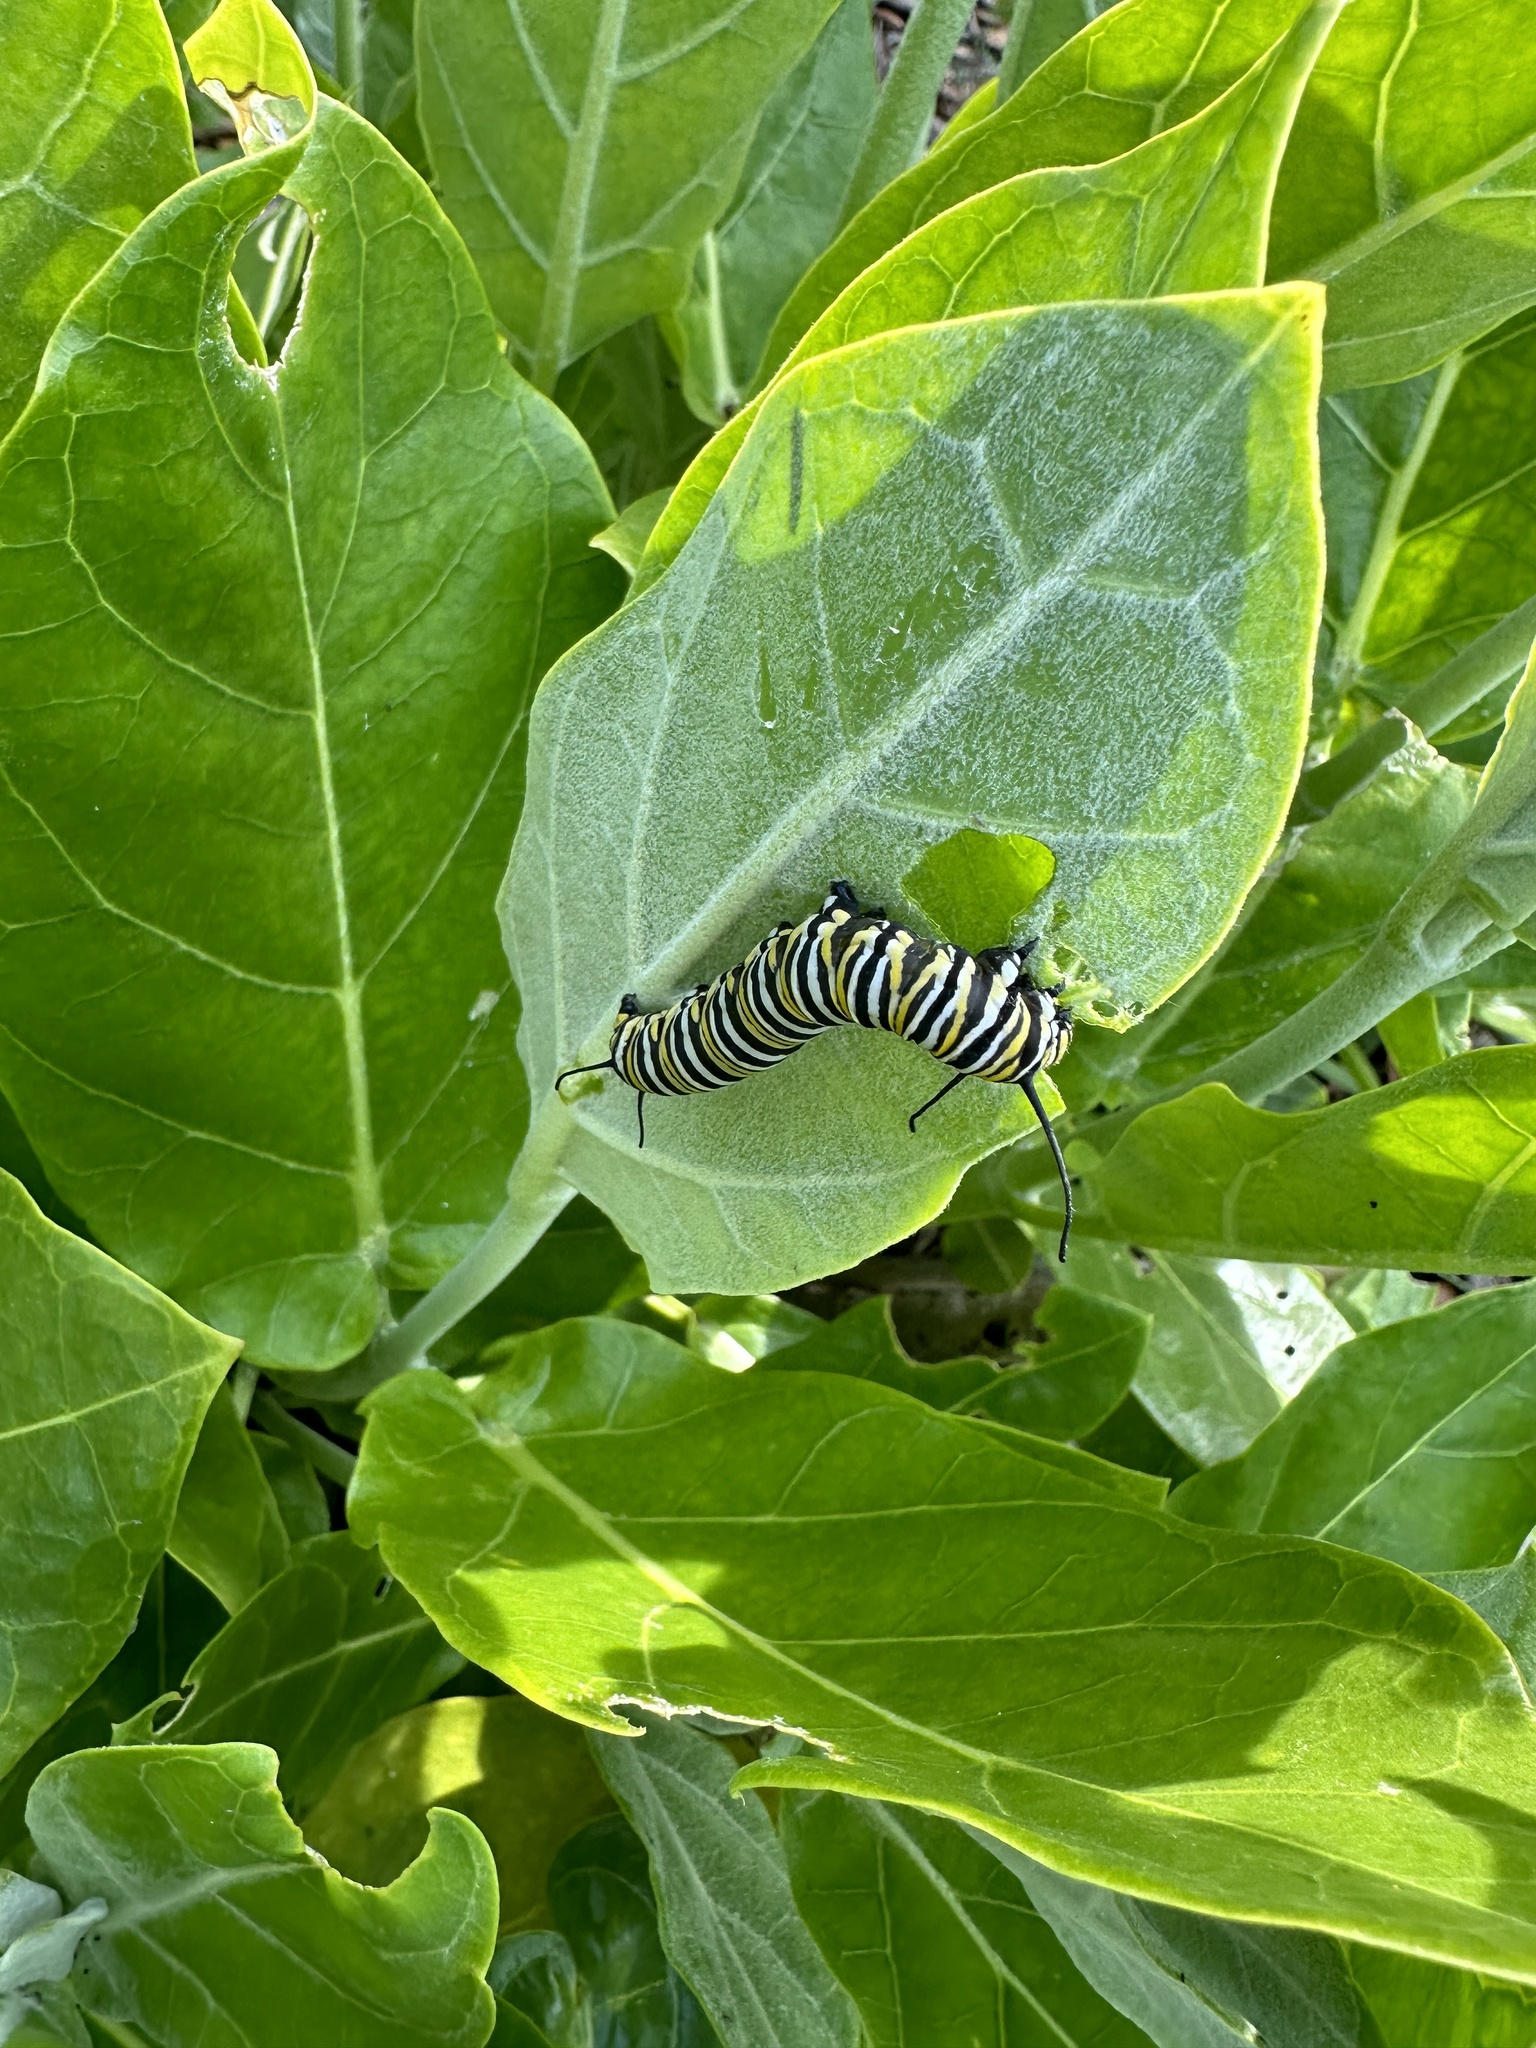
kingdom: Animalia
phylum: Arthropoda
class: Insecta
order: Lepidoptera
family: Nymphalidae
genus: Danaus
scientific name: Danaus plexippus
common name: Monarch
